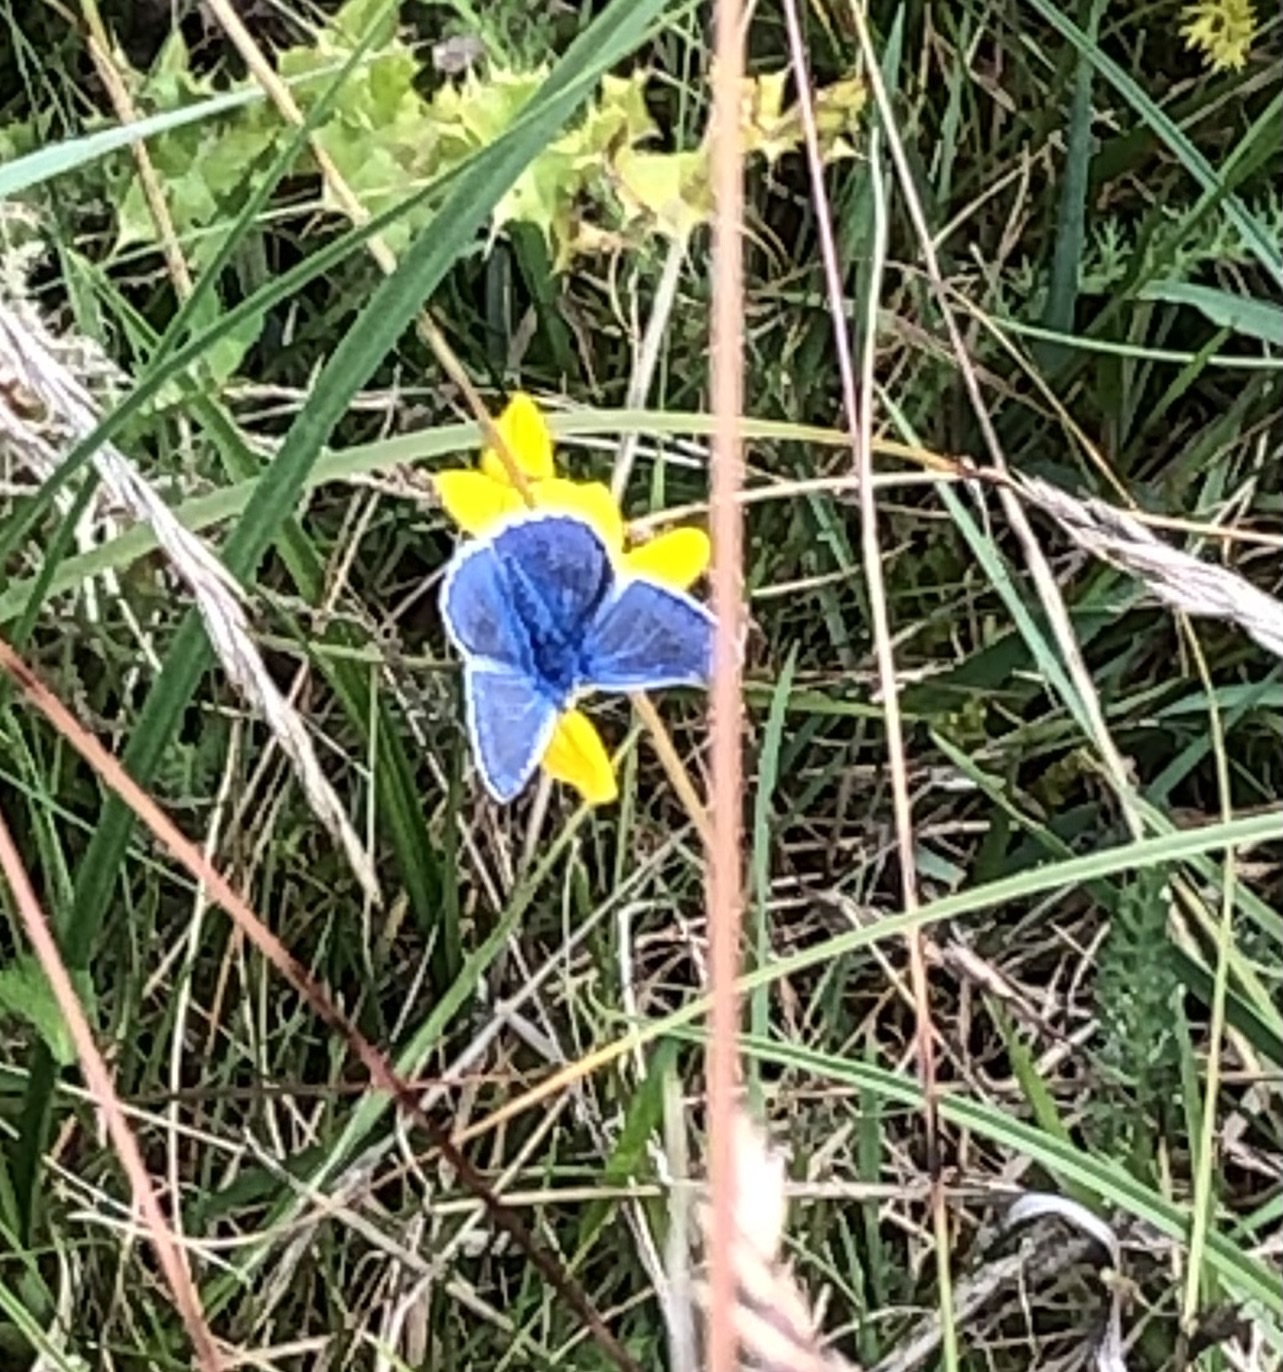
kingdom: Animalia
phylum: Arthropoda
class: Insecta
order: Lepidoptera
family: Lycaenidae
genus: Polyommatus
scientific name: Polyommatus icarus
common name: Common blue
